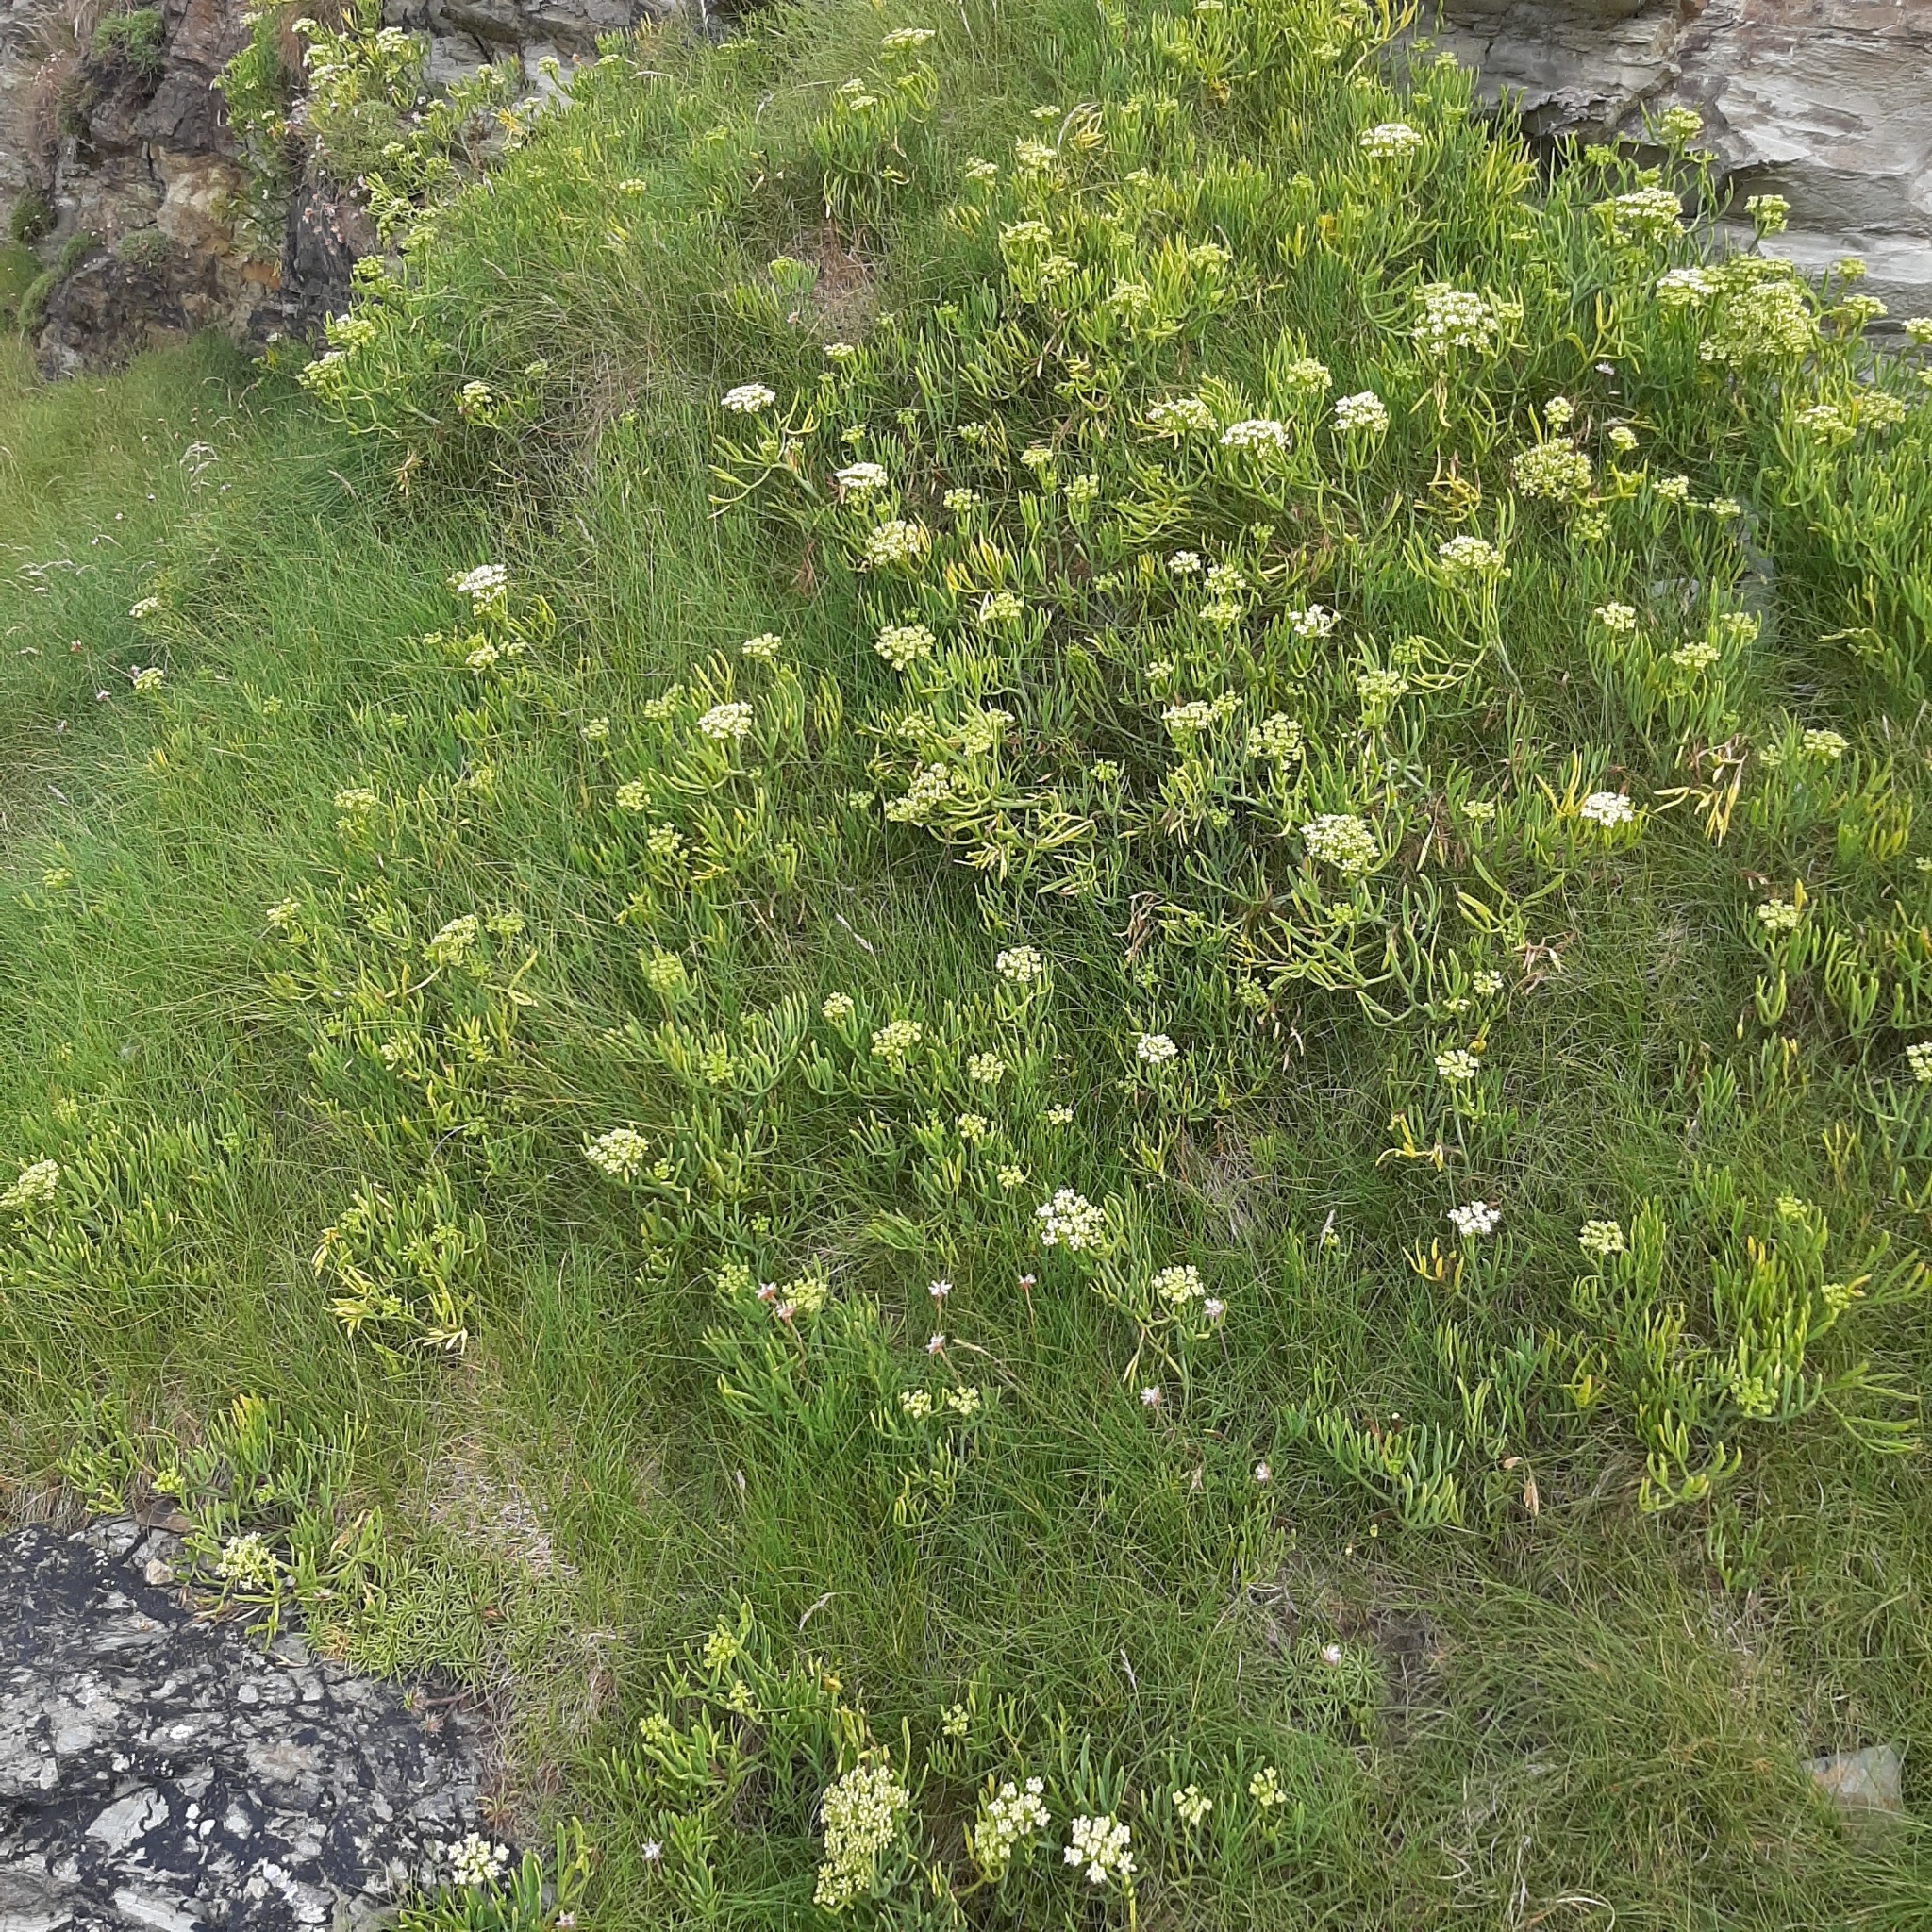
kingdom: Plantae
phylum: Tracheophyta
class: Magnoliopsida
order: Apiales
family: Apiaceae
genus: Crithmum
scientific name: Crithmum maritimum
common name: Rock samphire
